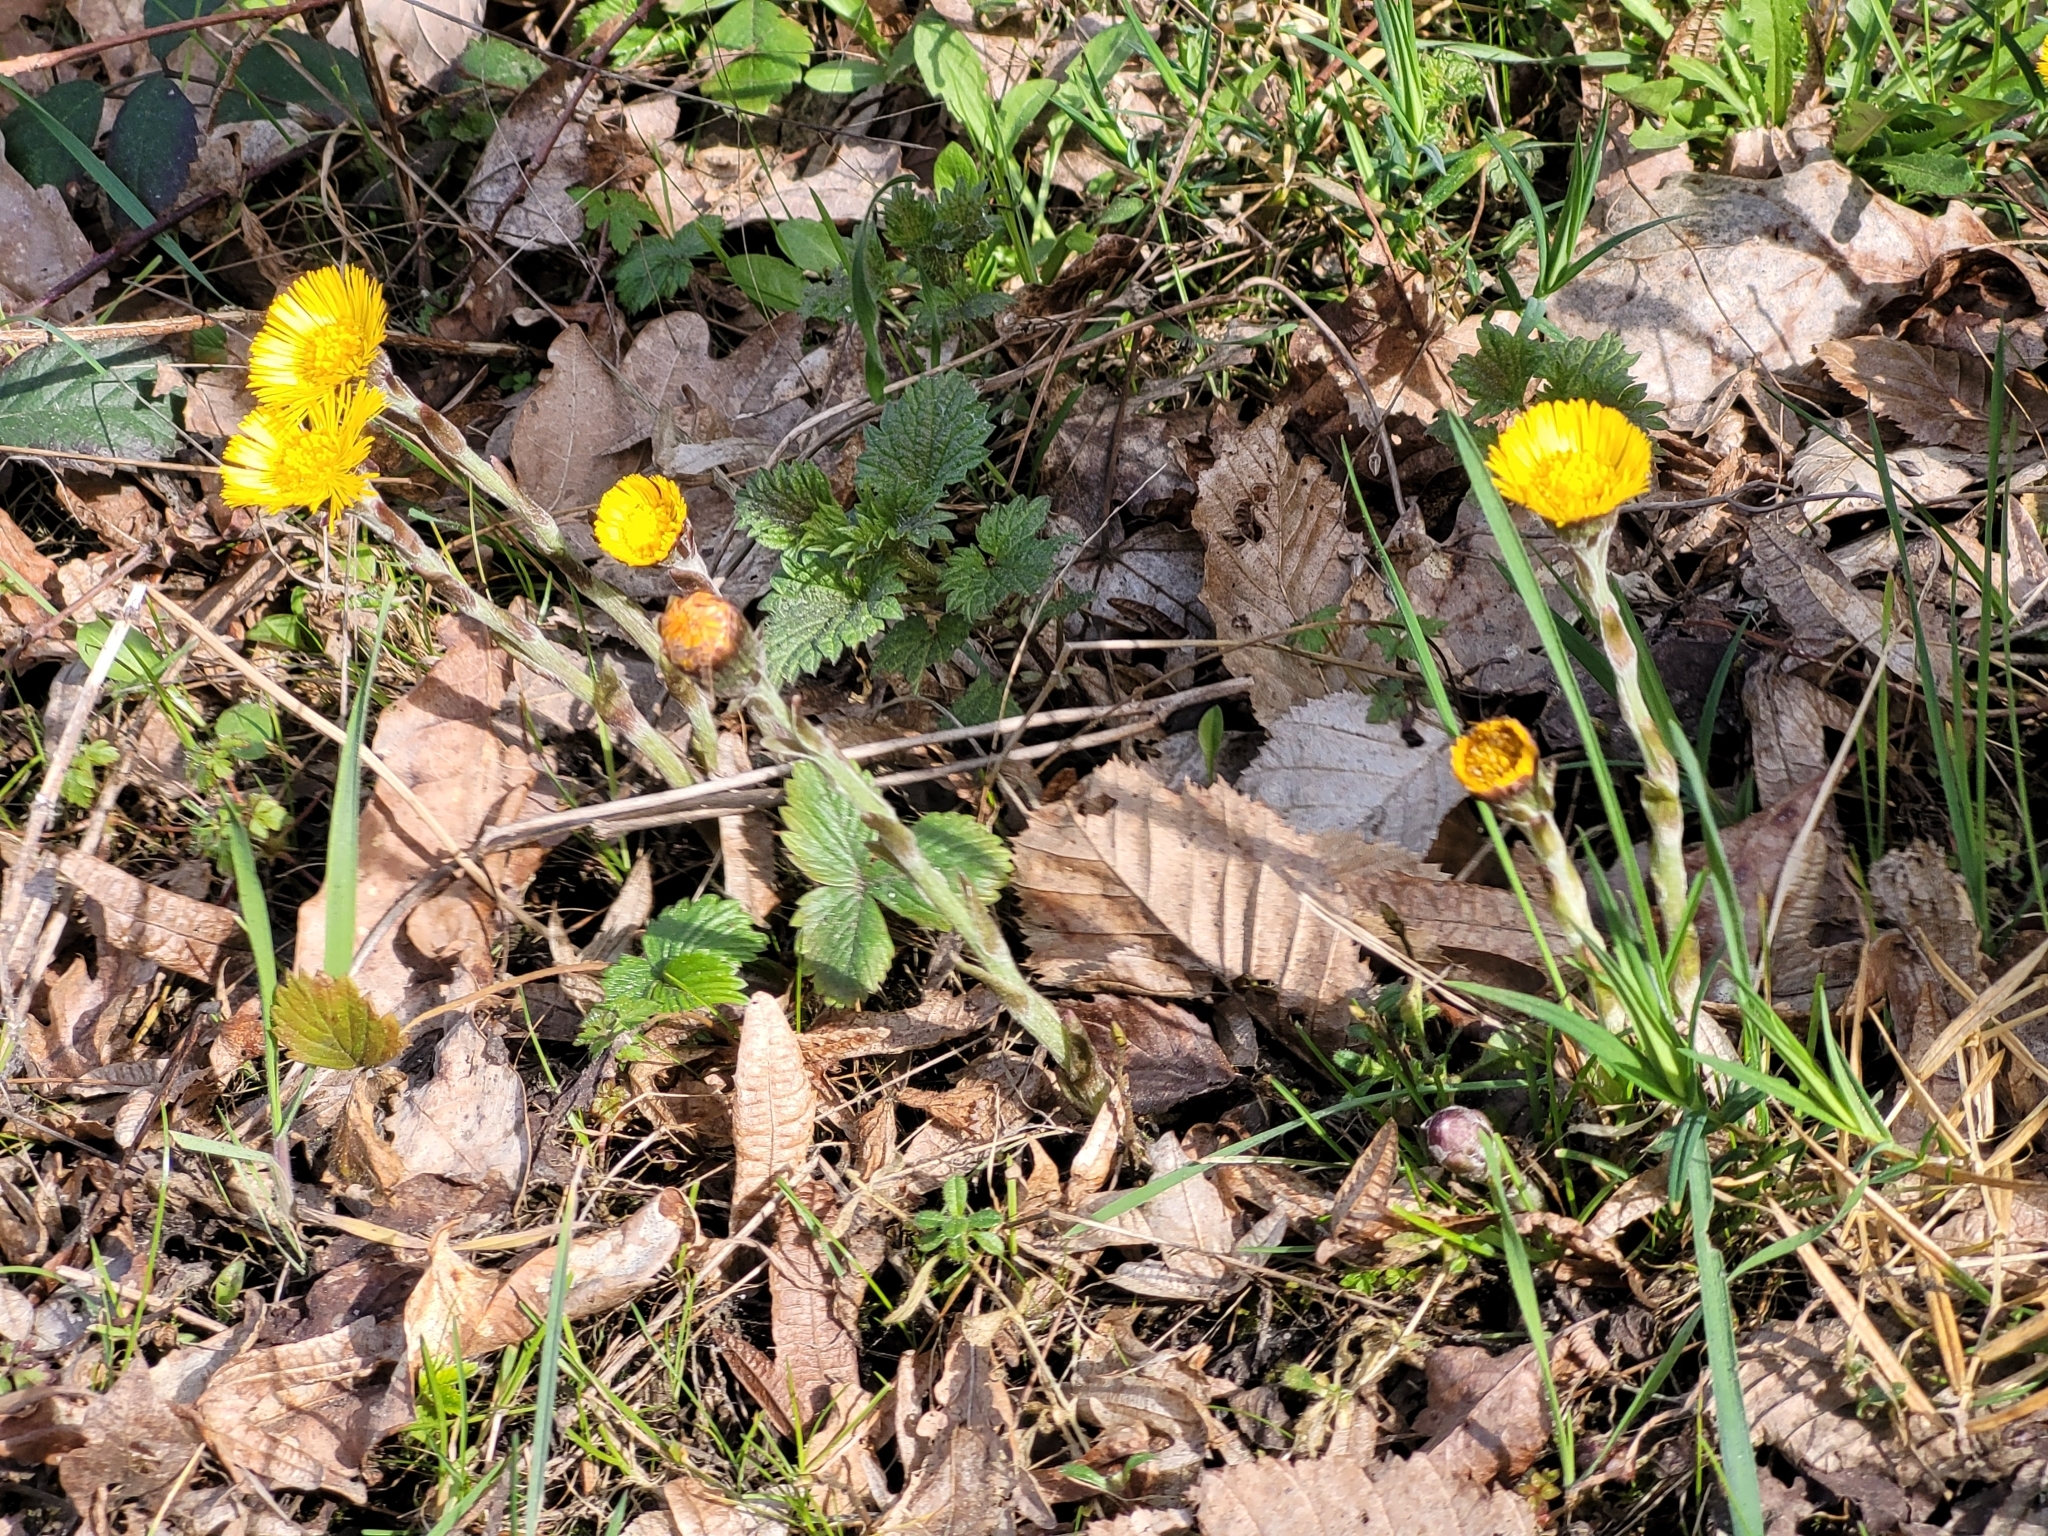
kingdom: Plantae
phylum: Tracheophyta
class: Magnoliopsida
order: Asterales
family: Asteraceae
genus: Tussilago
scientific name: Tussilago farfara
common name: Coltsfoot
